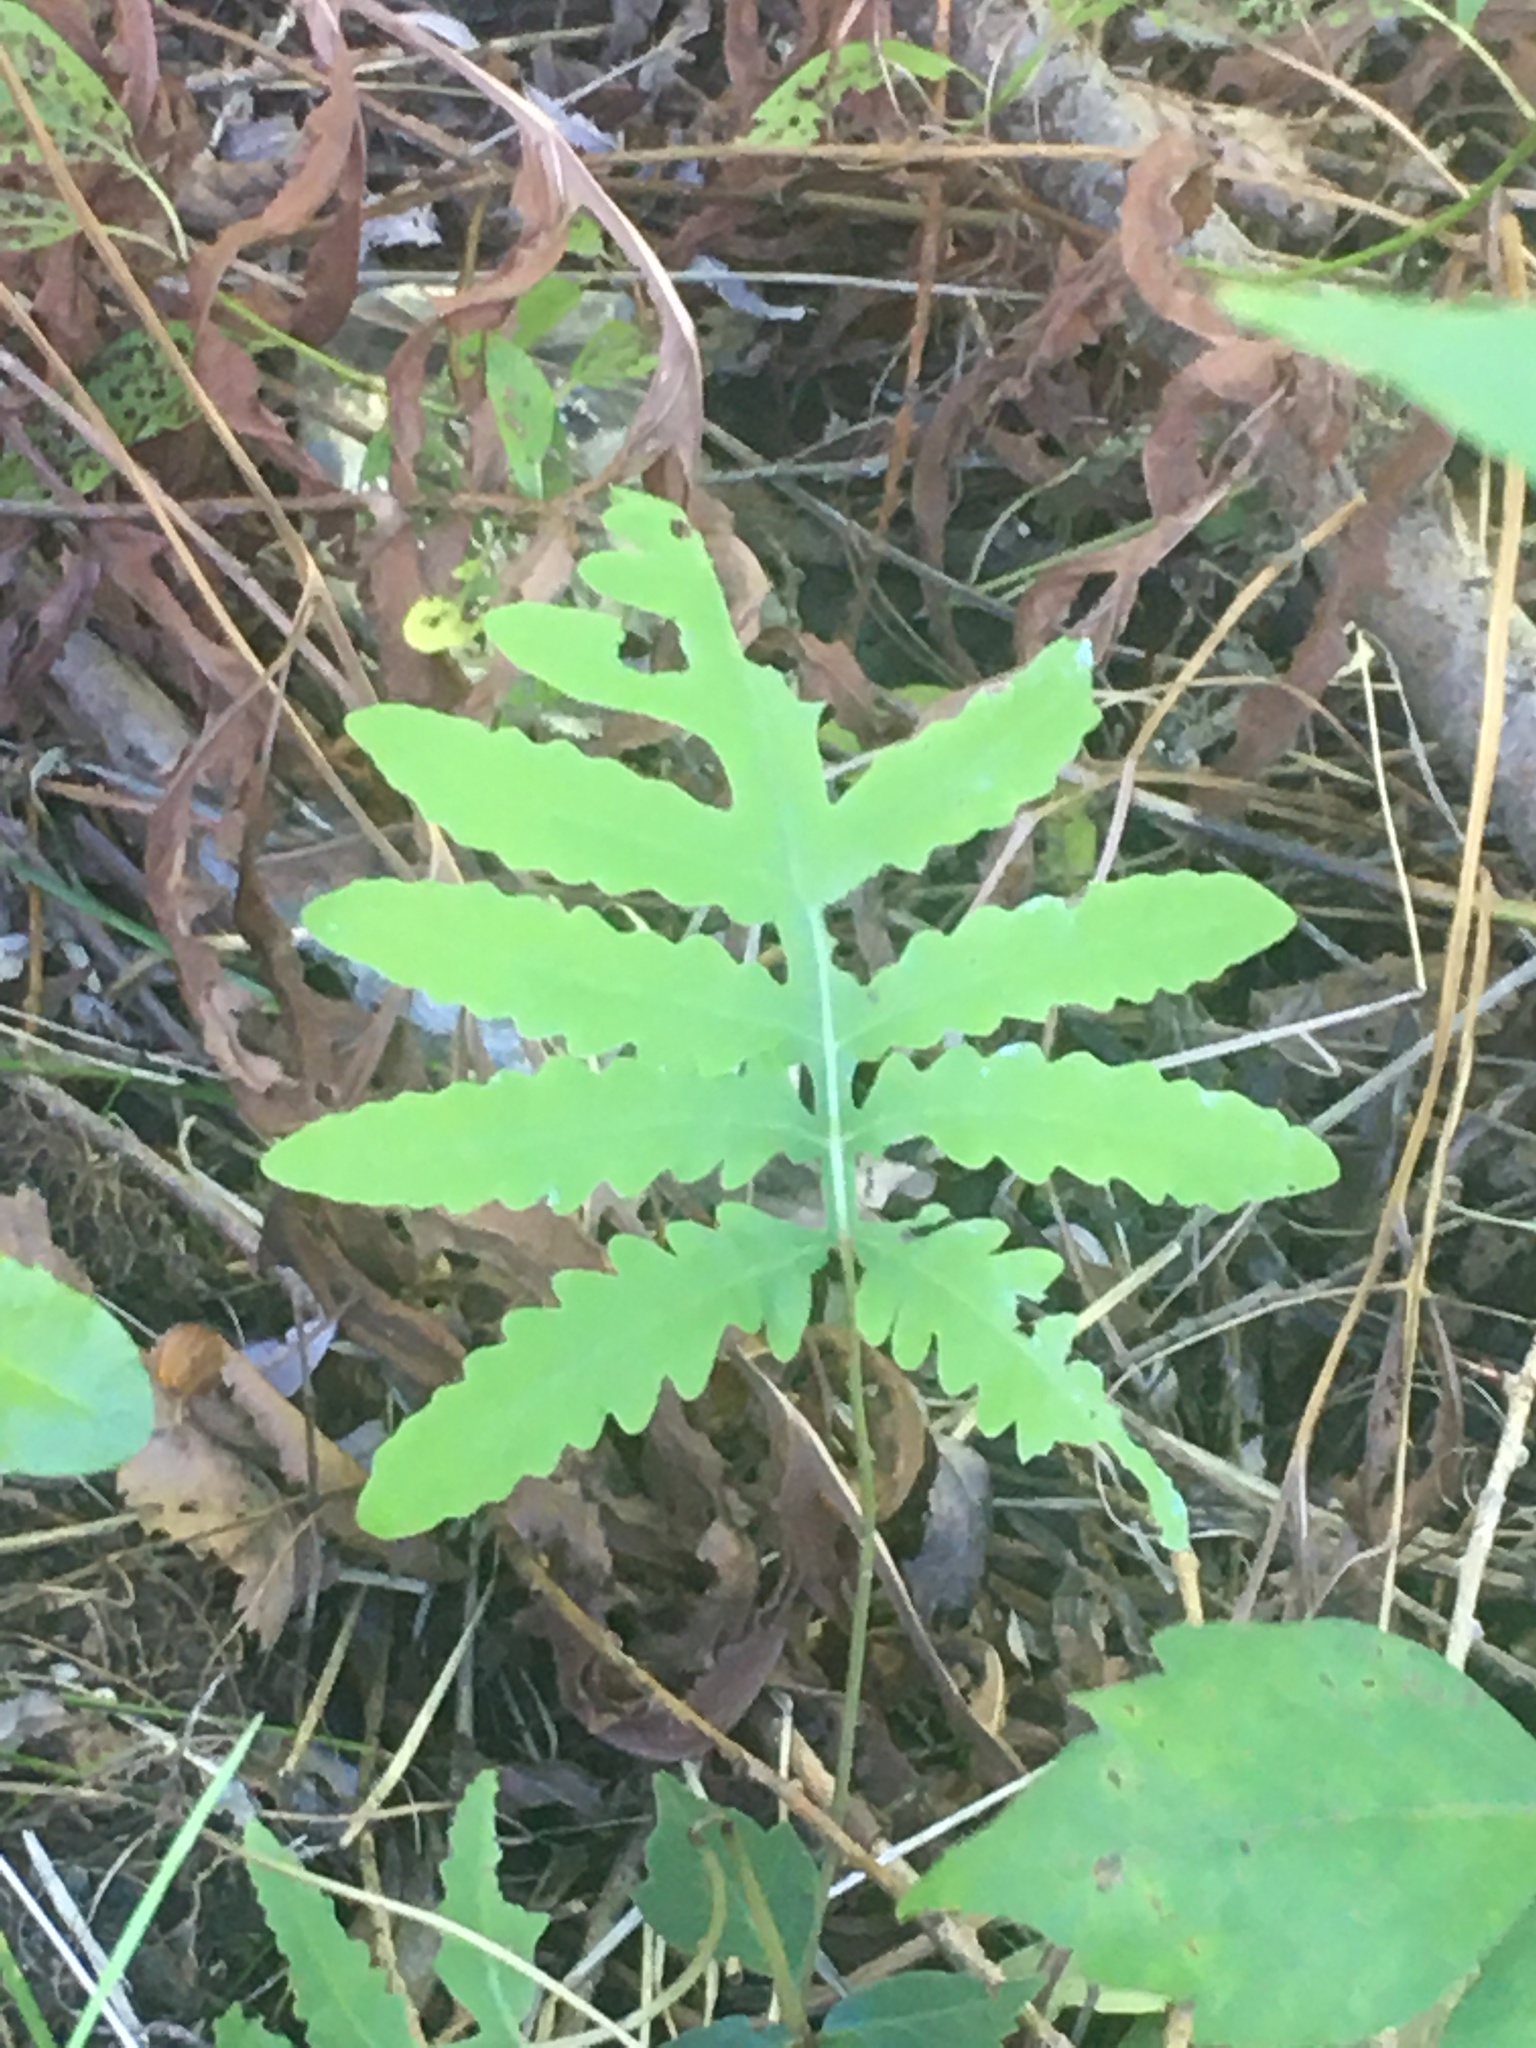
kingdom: Plantae
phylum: Tracheophyta
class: Polypodiopsida
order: Polypodiales
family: Onocleaceae
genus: Onoclea
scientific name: Onoclea sensibilis
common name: Sensitive fern
